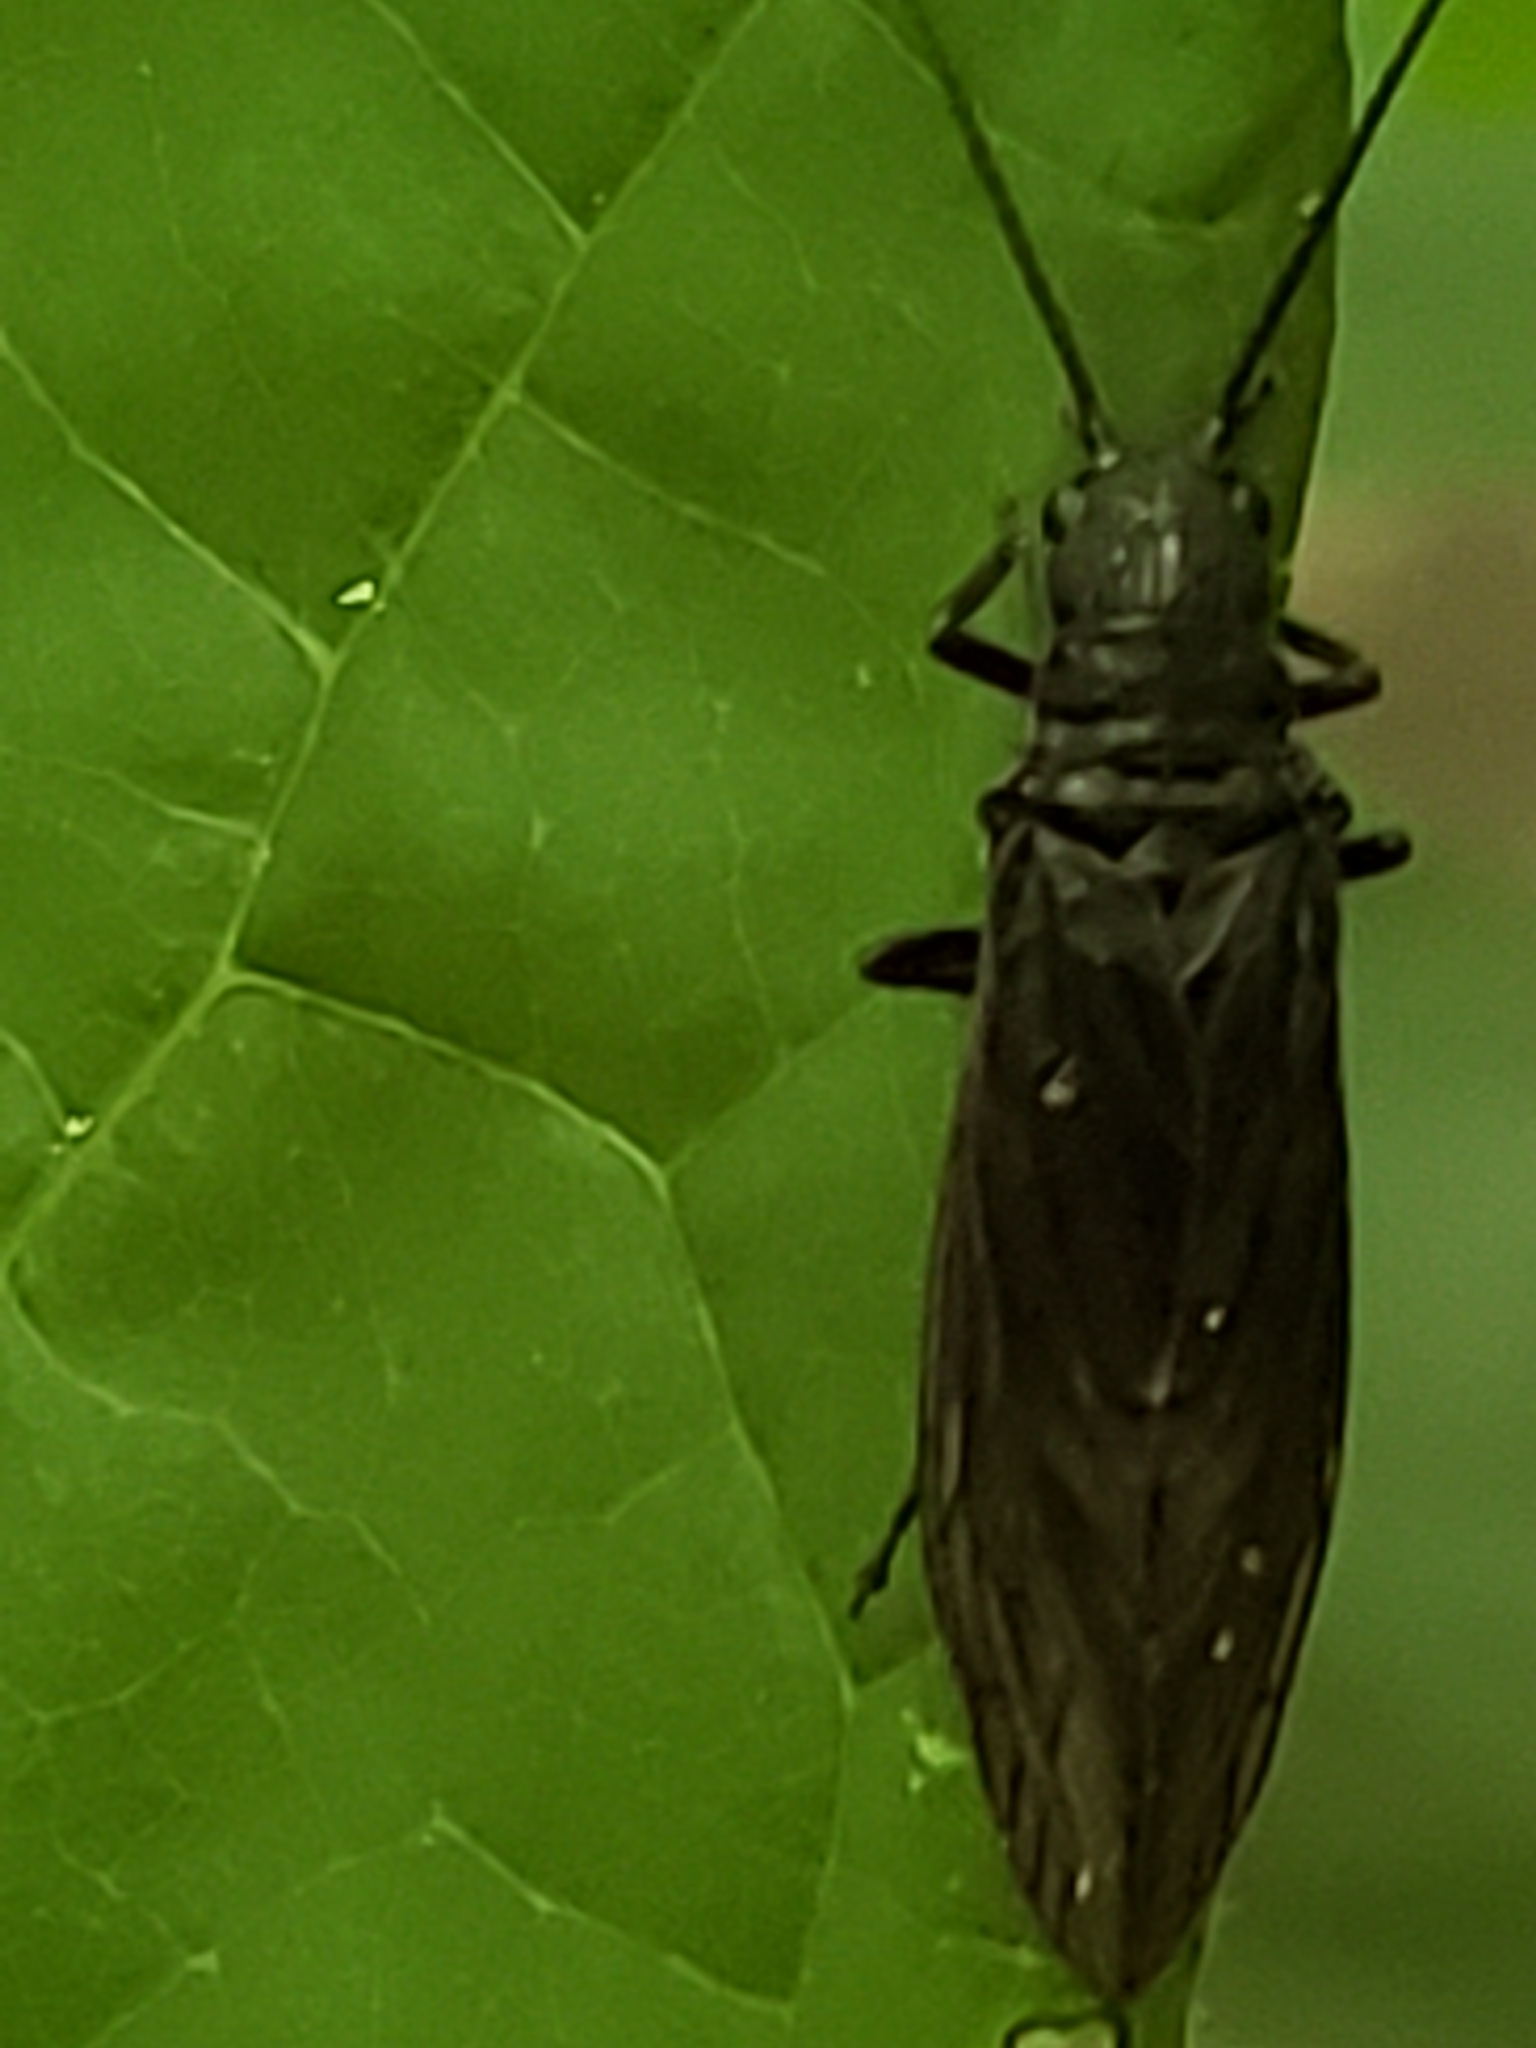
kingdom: Animalia
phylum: Arthropoda
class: Insecta
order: Megaloptera
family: Sialidae
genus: Sialis
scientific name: Sialis
